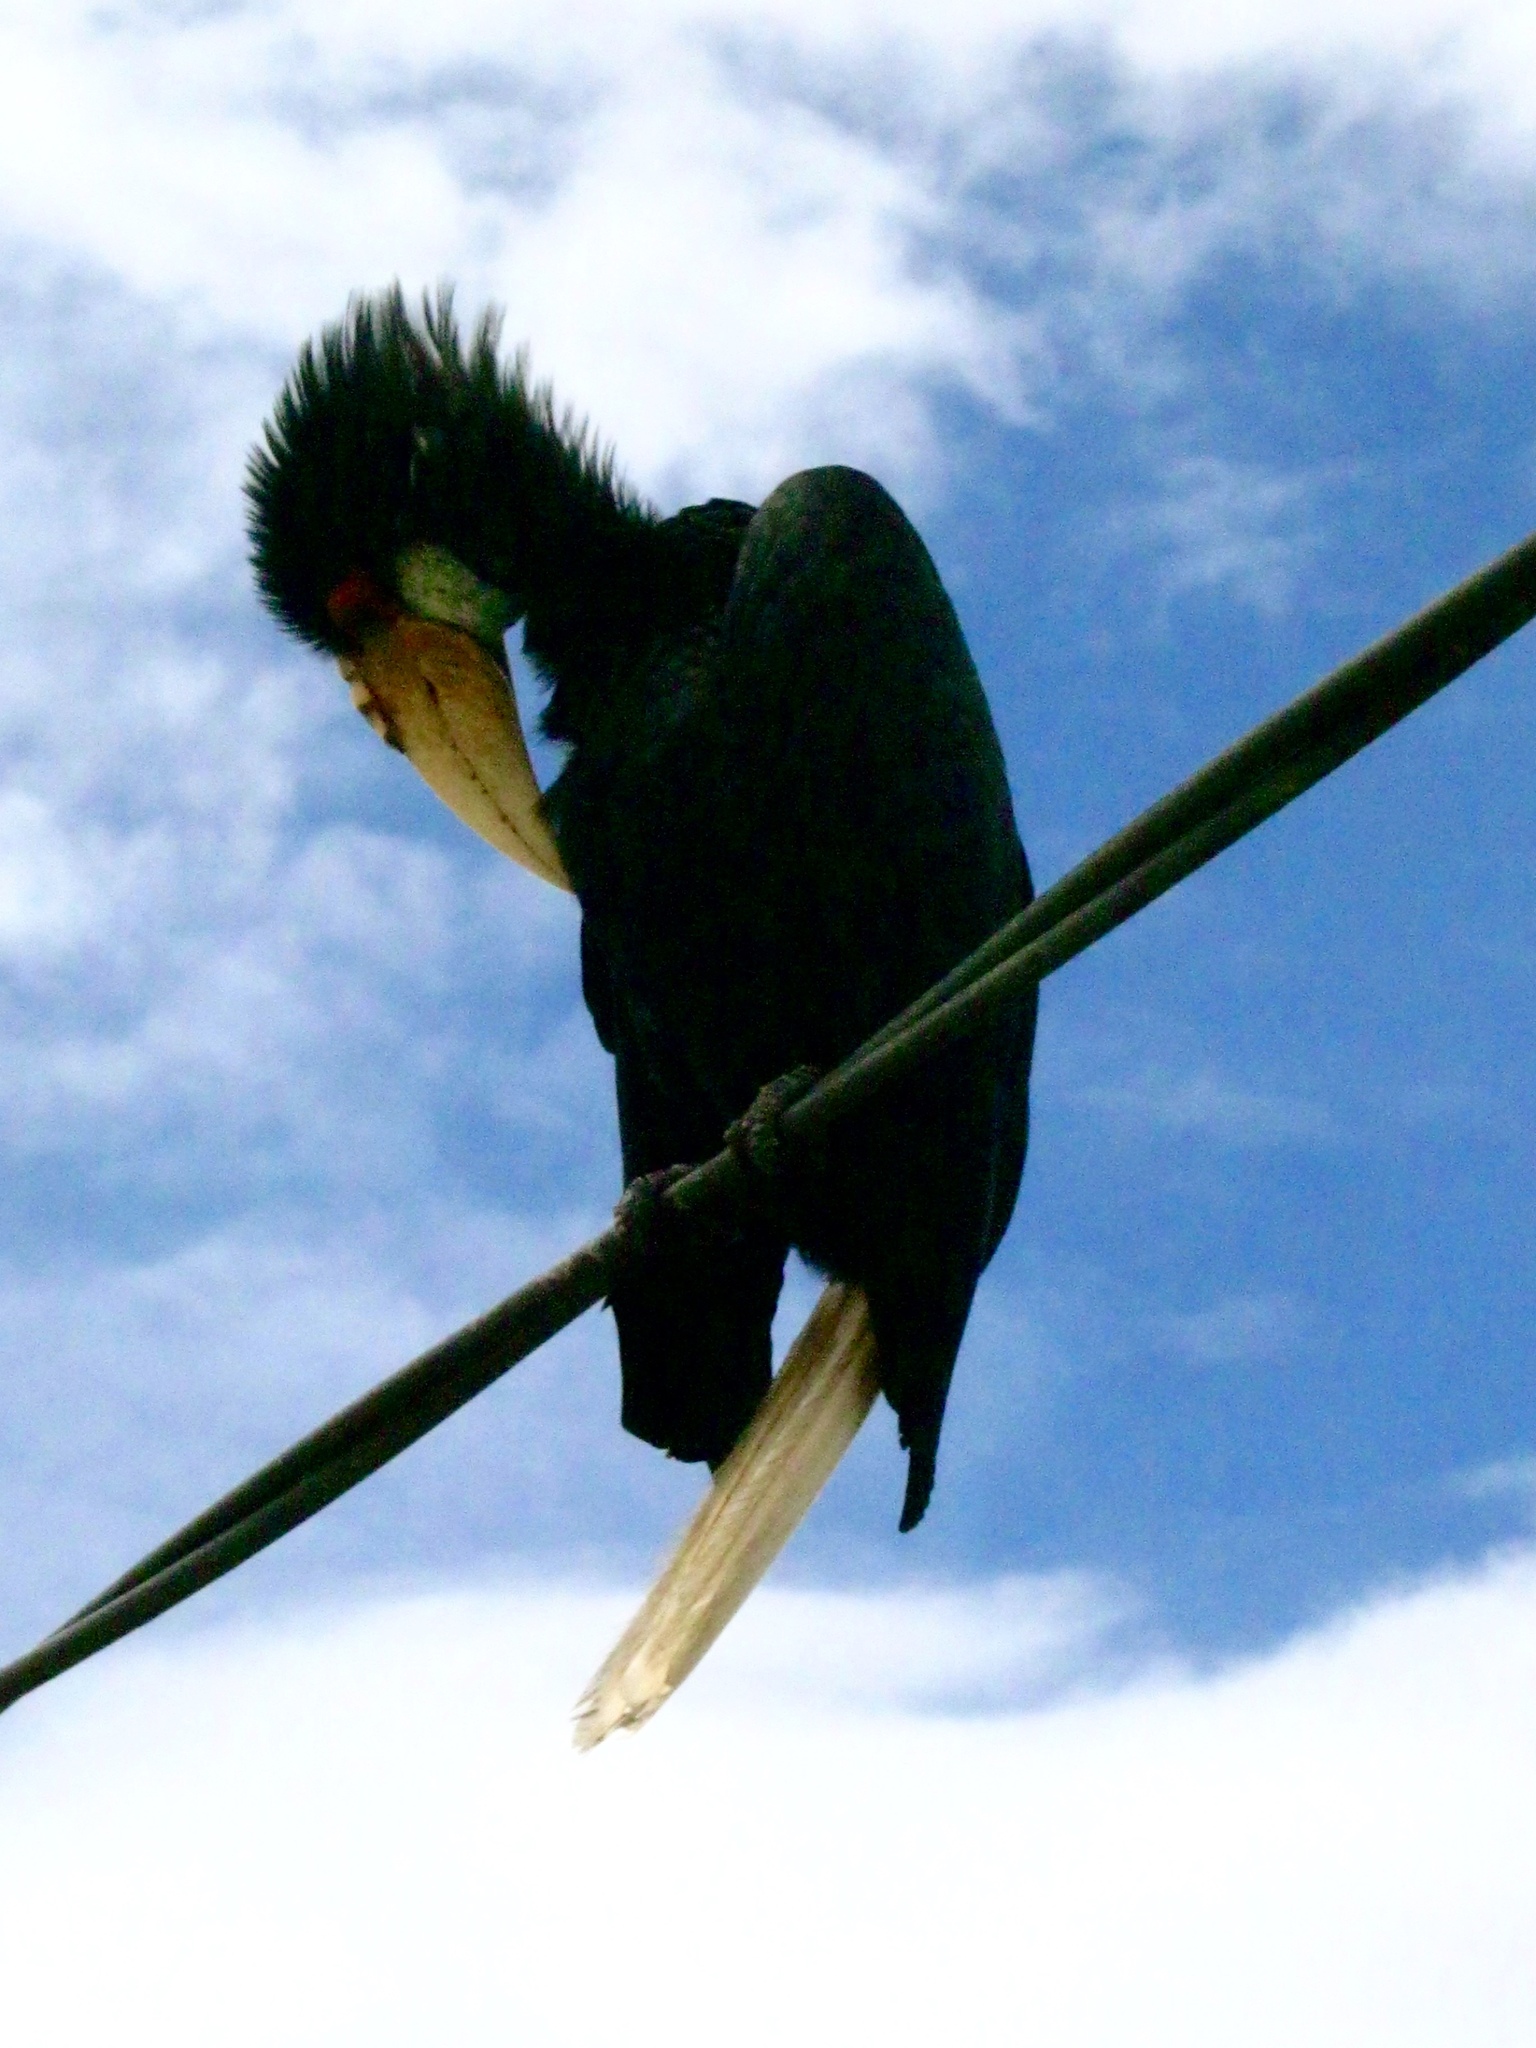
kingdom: Animalia
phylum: Chordata
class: Aves
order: Bucerotiformes
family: Bucerotidae
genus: Rhyticeros
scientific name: Rhyticeros undulatus
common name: Wreathed hornbill
